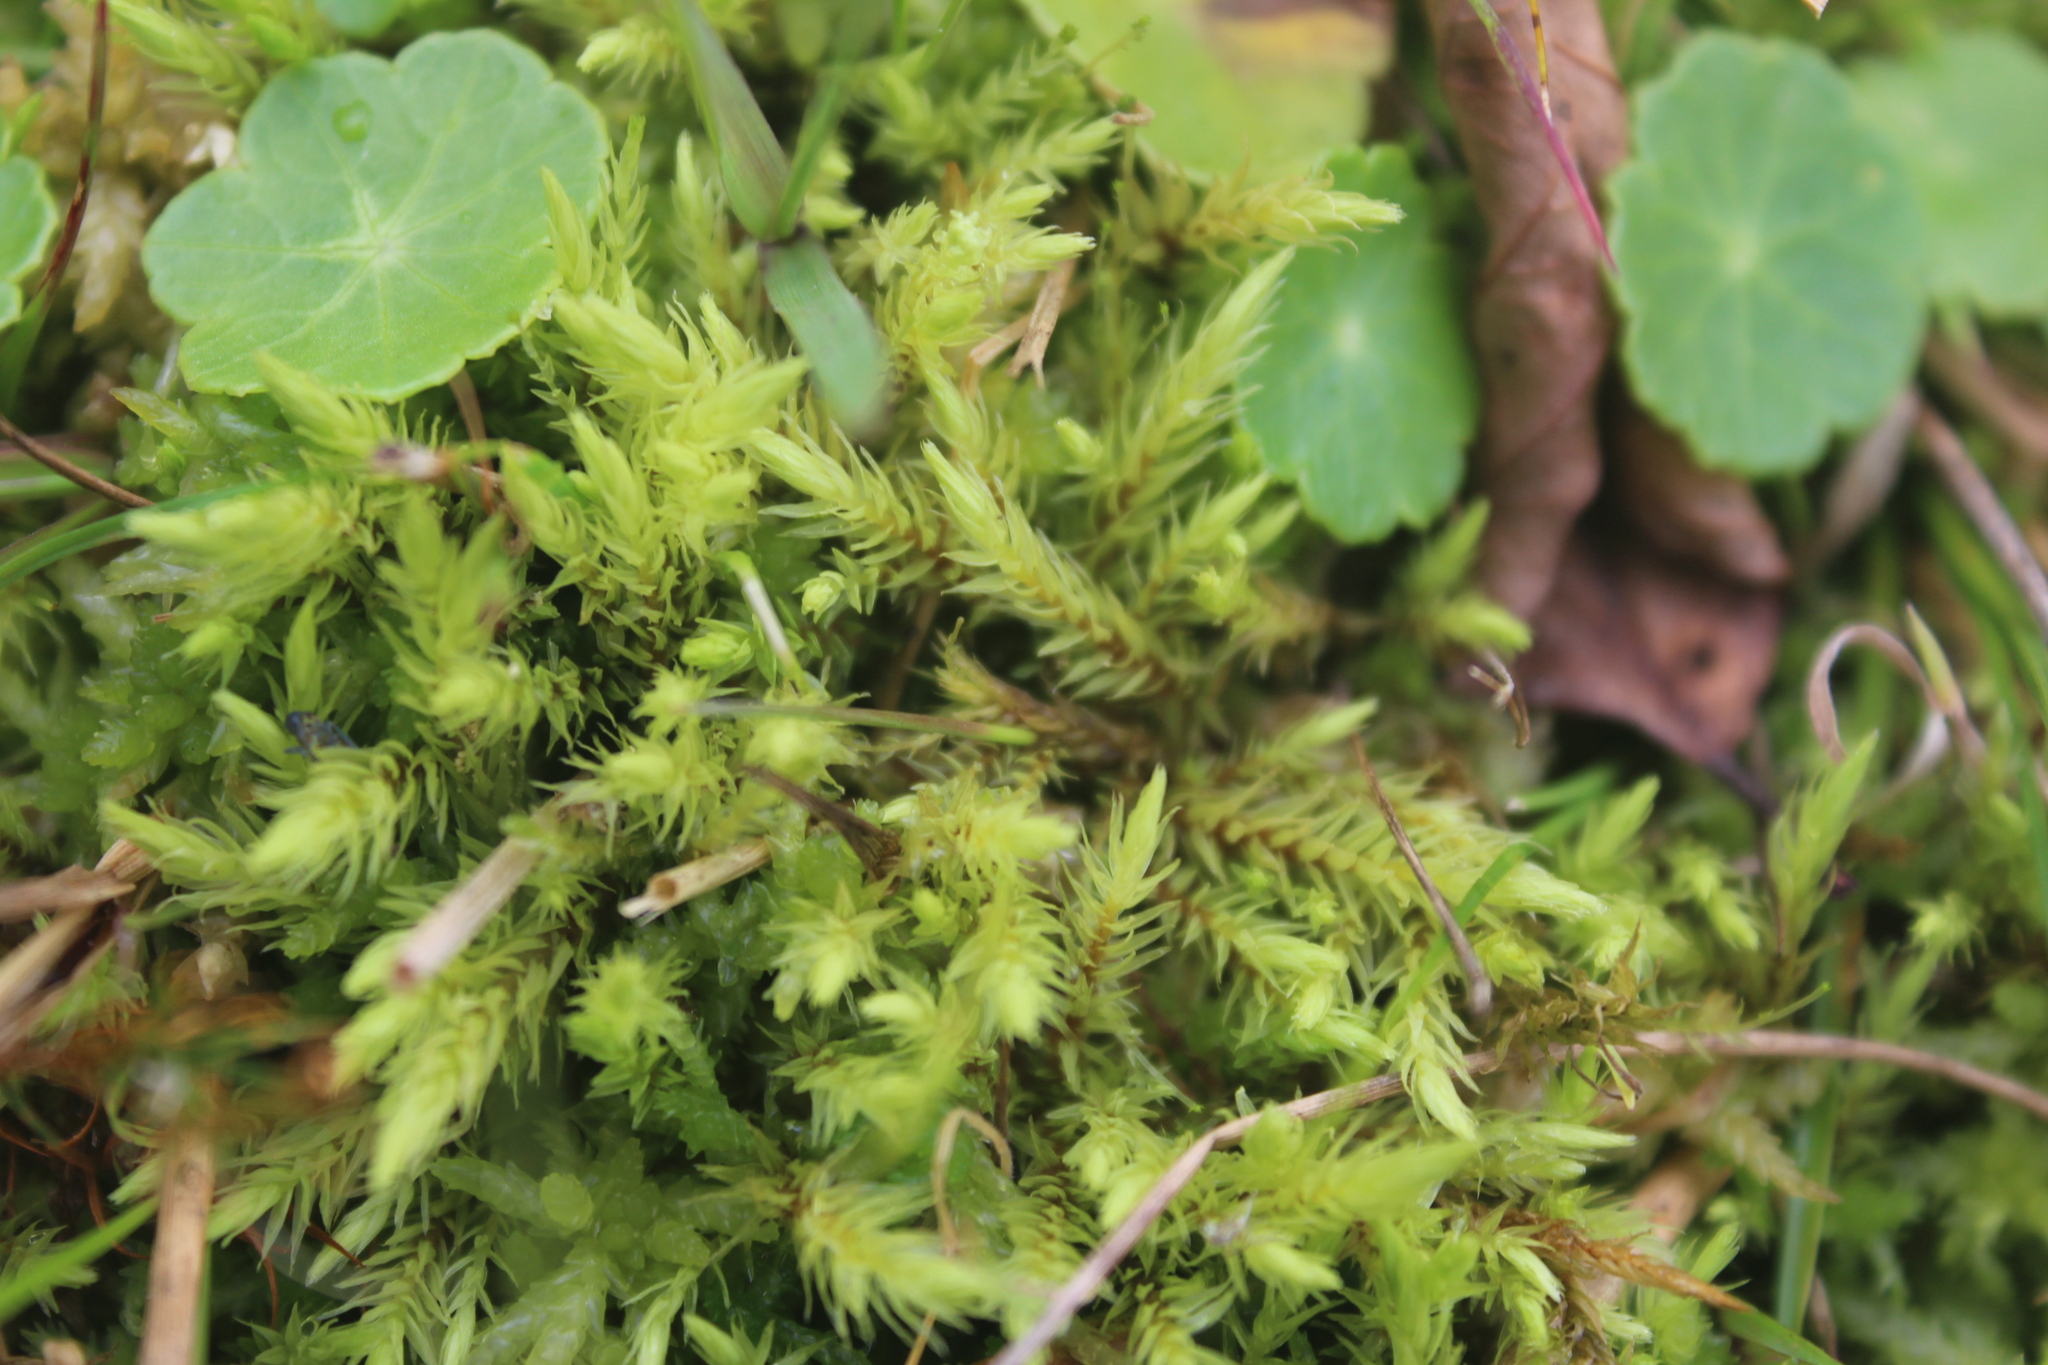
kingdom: Plantae
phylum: Bryophyta
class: Bryopsida
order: Aulacomniales
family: Aulacomniaceae
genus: Aulacomnium
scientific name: Aulacomnium palustre
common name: Bog groove-moss
